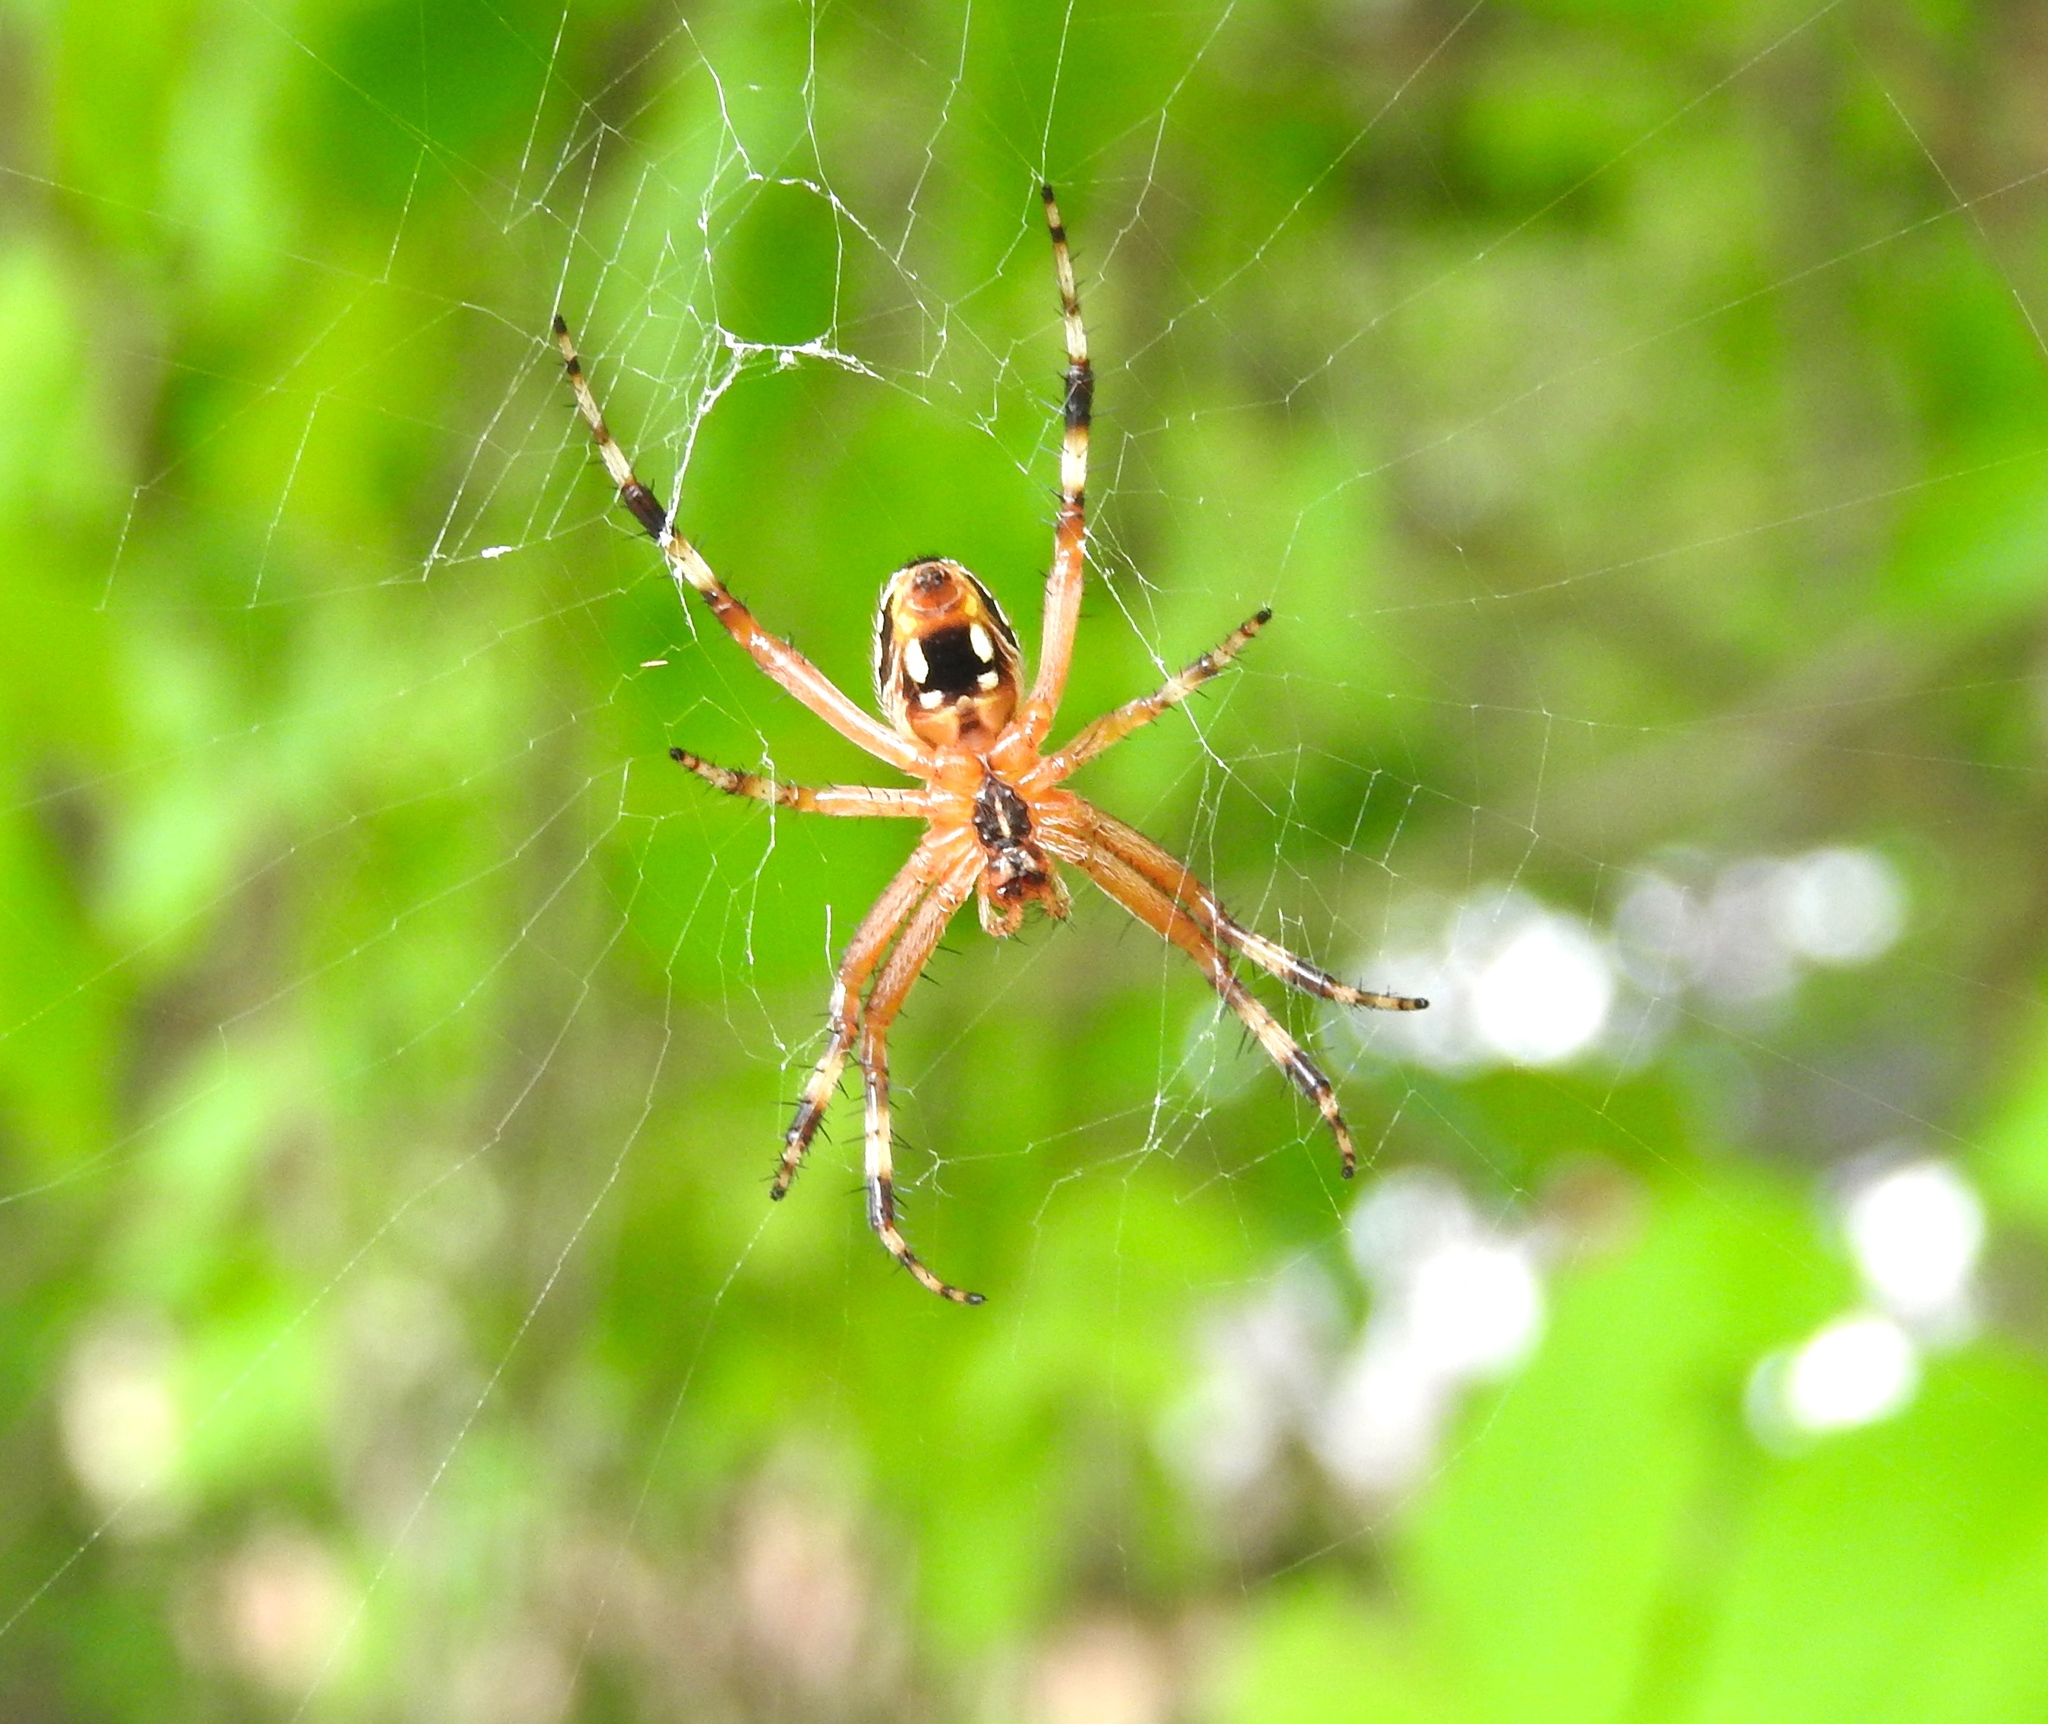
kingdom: Animalia
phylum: Arthropoda
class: Arachnida
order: Araneae
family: Araneidae
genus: Neoscona
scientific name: Neoscona
